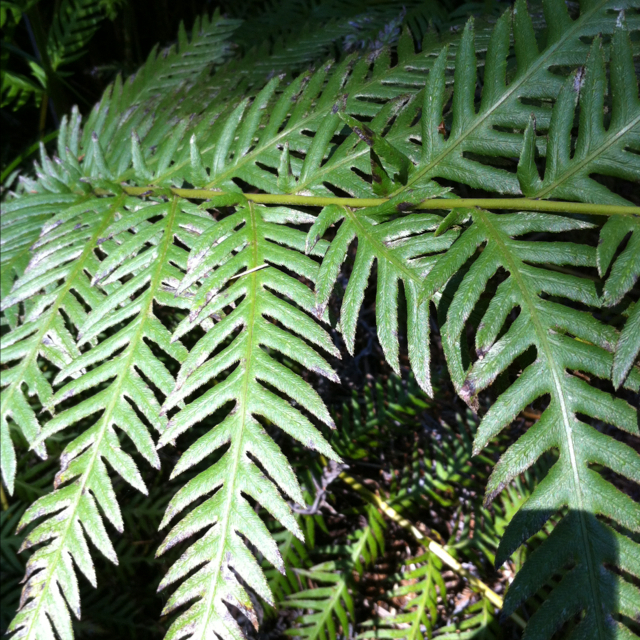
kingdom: Plantae
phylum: Tracheophyta
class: Polypodiopsida
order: Polypodiales
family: Blechnaceae
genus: Woodwardia
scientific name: Woodwardia fimbriata
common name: Giant chain fern
